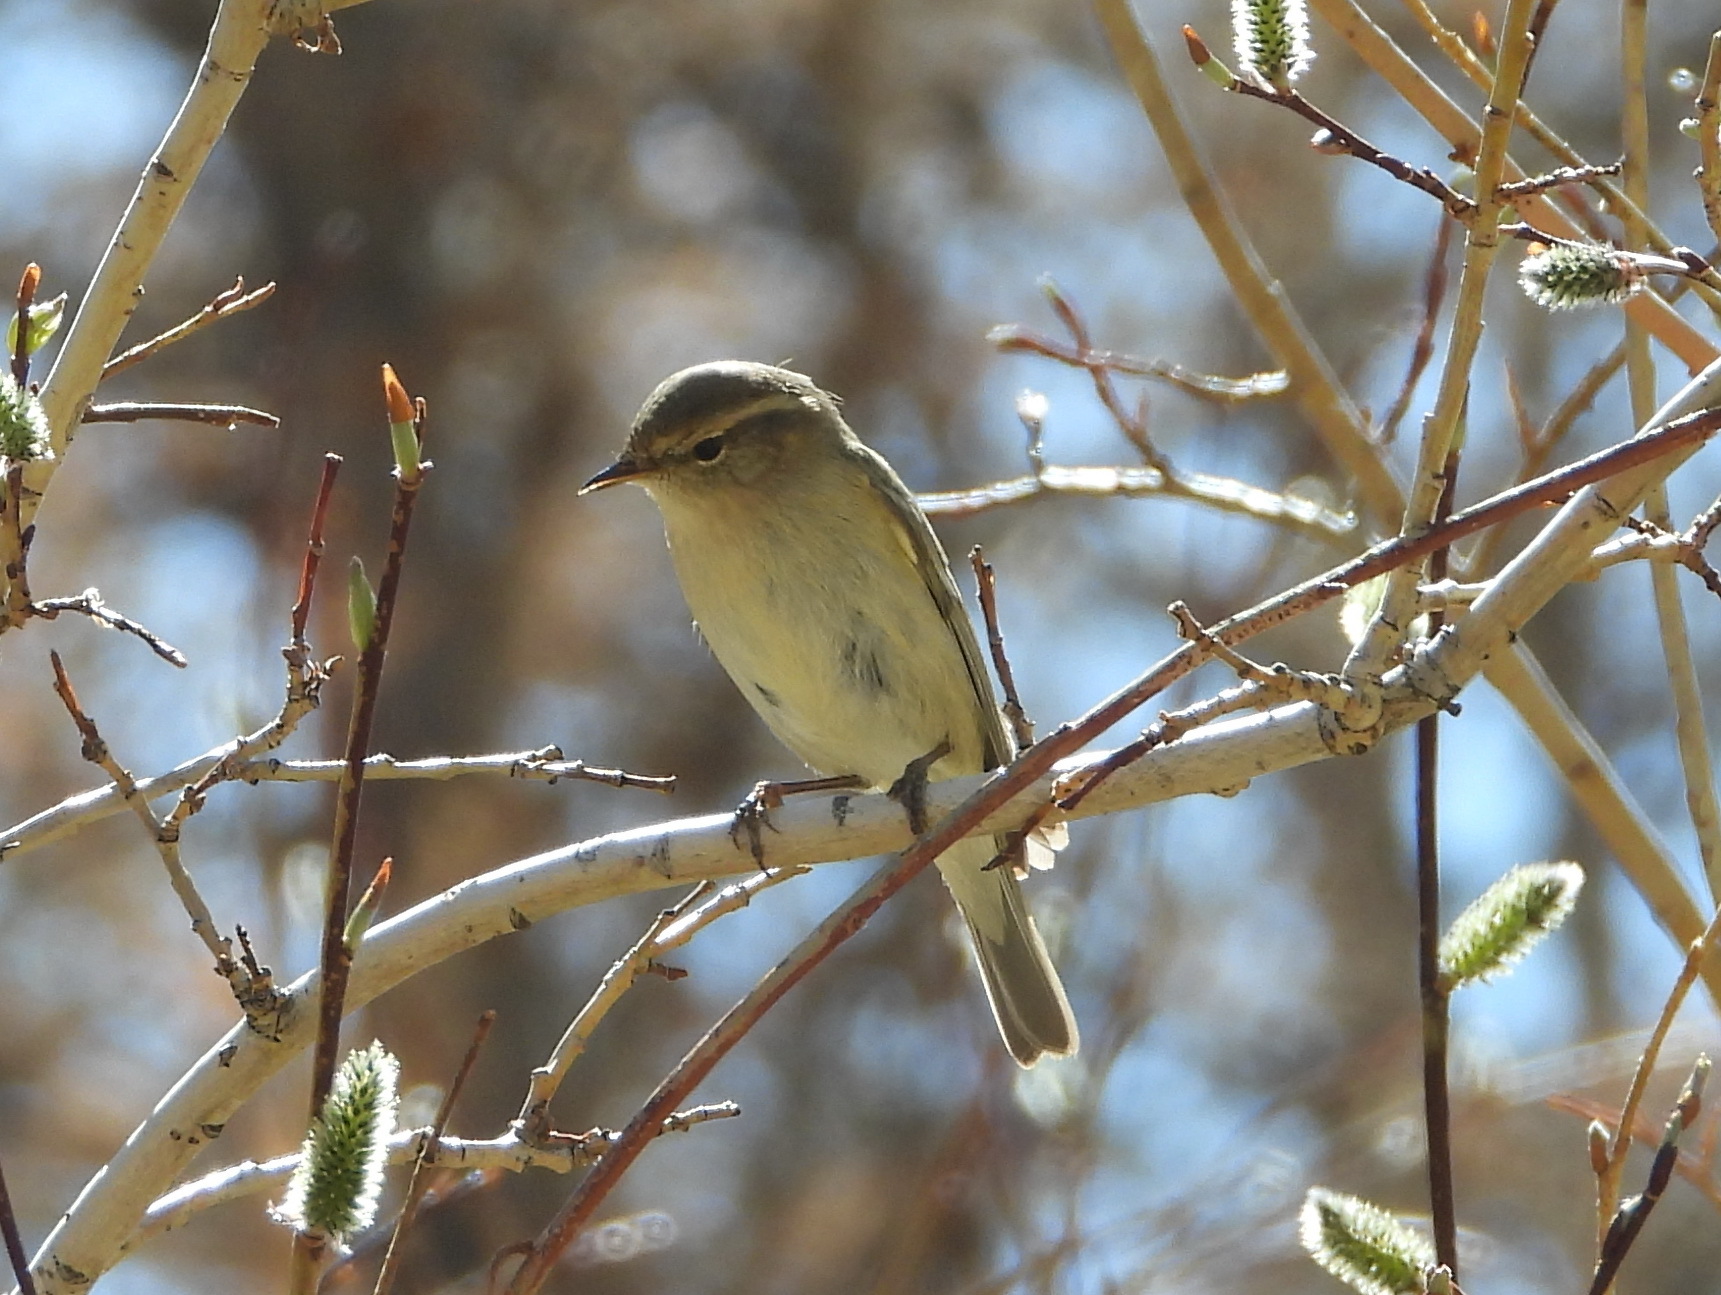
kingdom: Animalia
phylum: Chordata
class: Aves
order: Passeriformes
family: Phylloscopidae
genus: Phylloscopus
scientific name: Phylloscopus collybita
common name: Common chiffchaff
